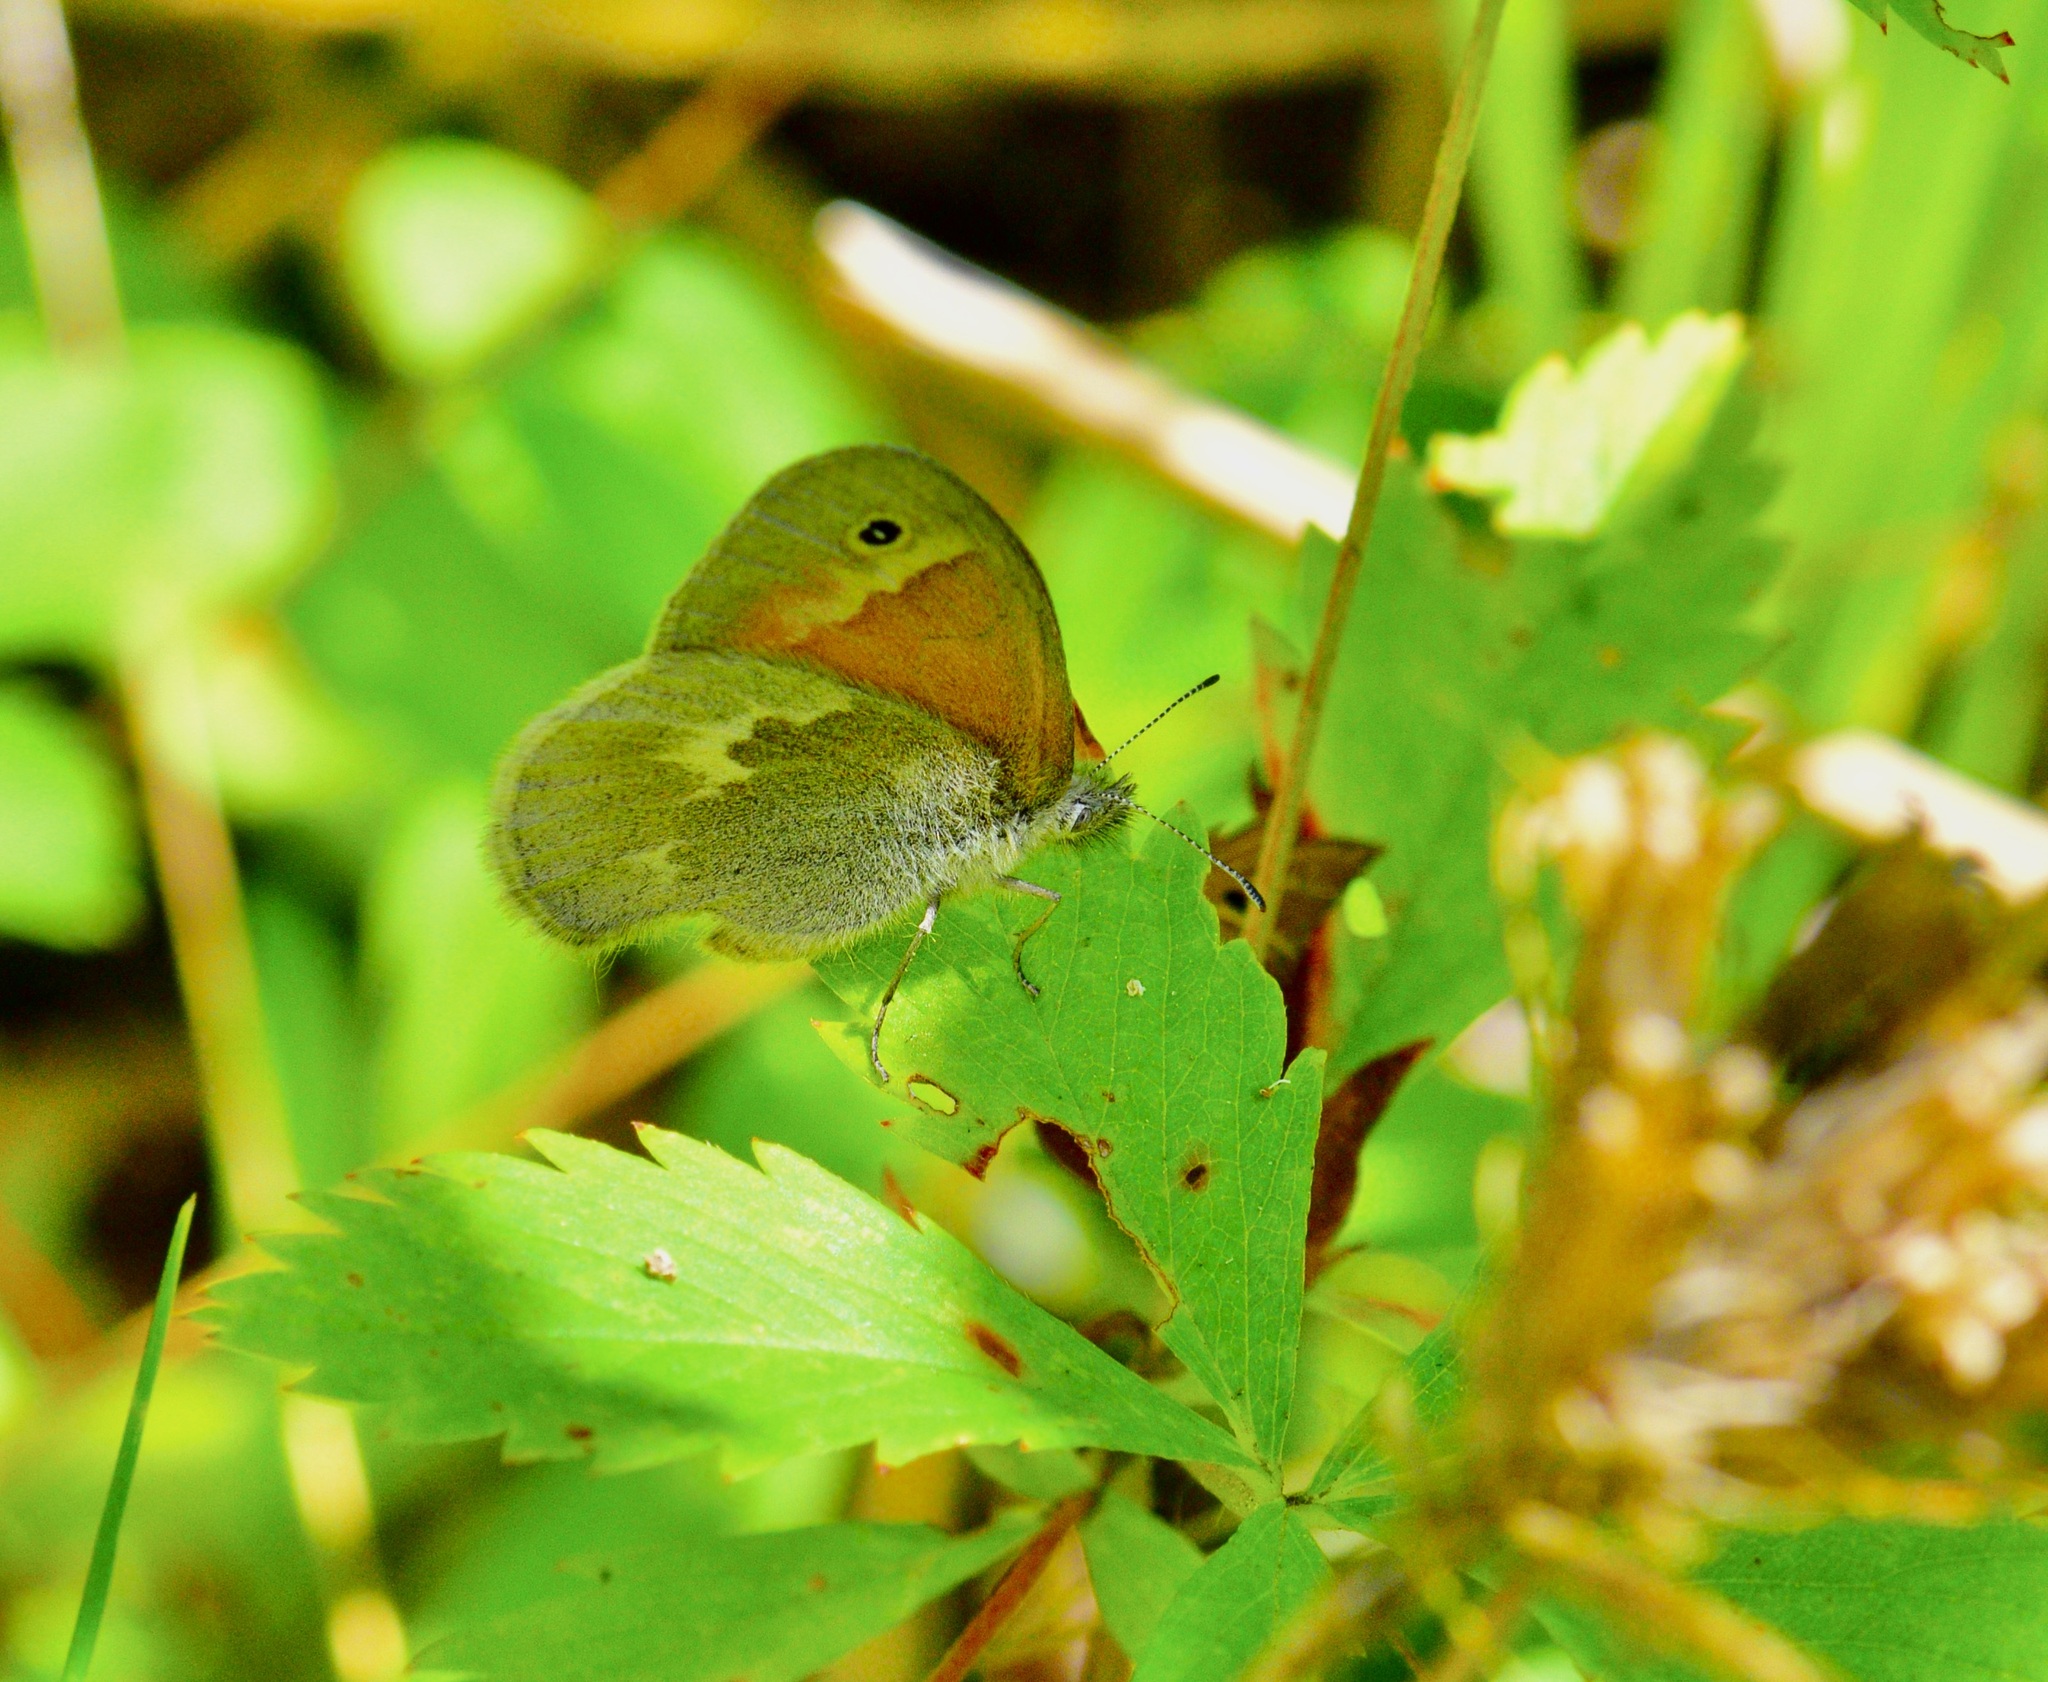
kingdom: Animalia
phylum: Arthropoda
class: Insecta
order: Lepidoptera
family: Nymphalidae
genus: Coenonympha
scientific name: Coenonympha california
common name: Common ringlet
